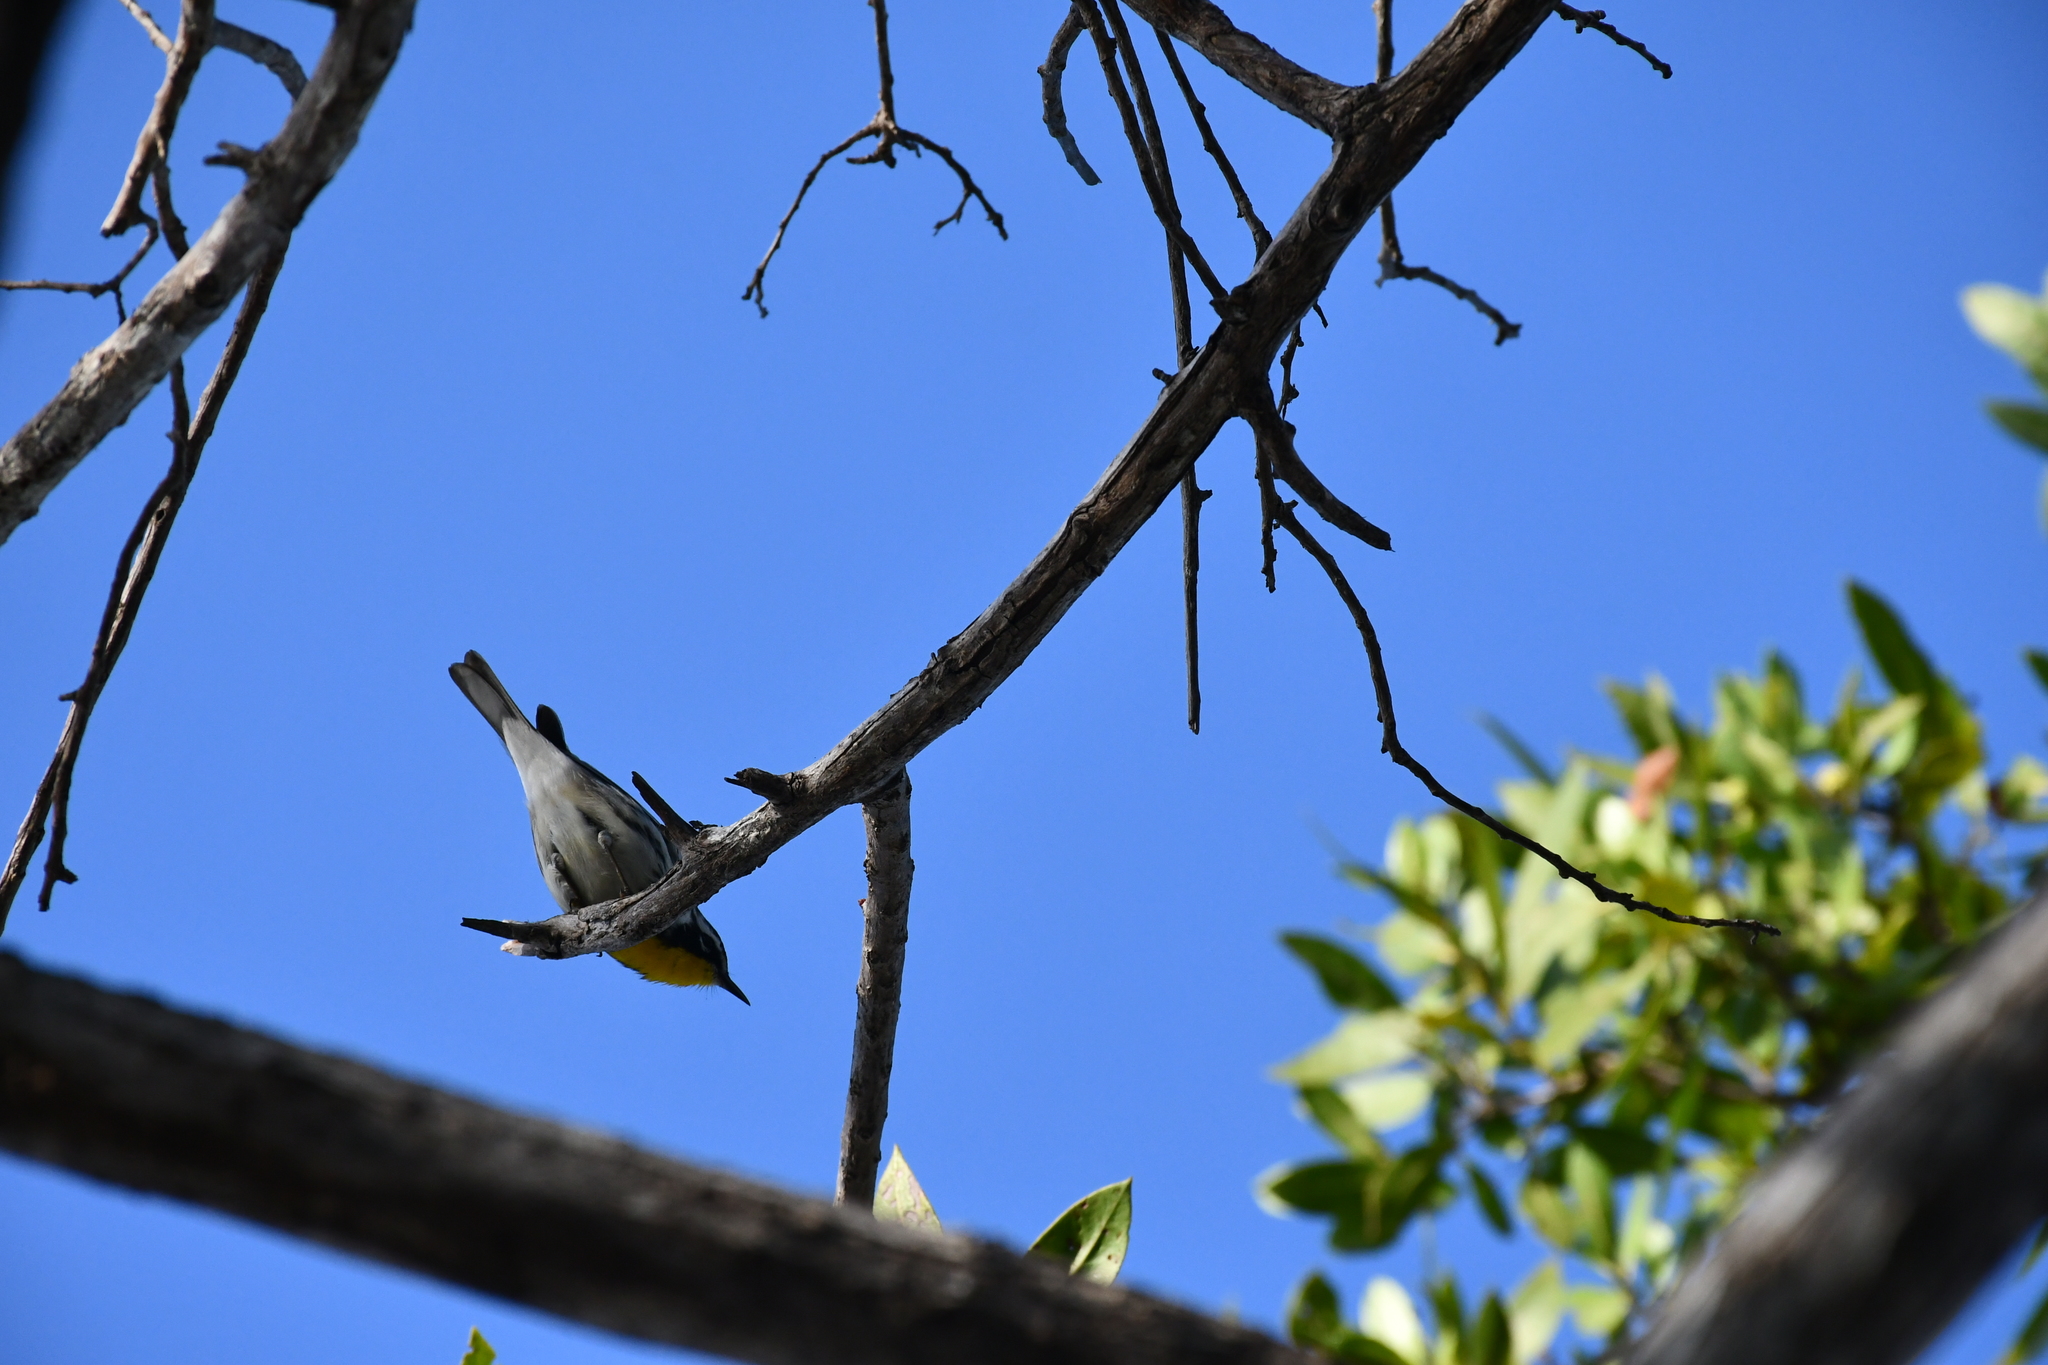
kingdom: Animalia
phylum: Chordata
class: Aves
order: Passeriformes
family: Parulidae
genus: Setophaga
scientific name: Setophaga dominica
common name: Yellow-throated warbler
